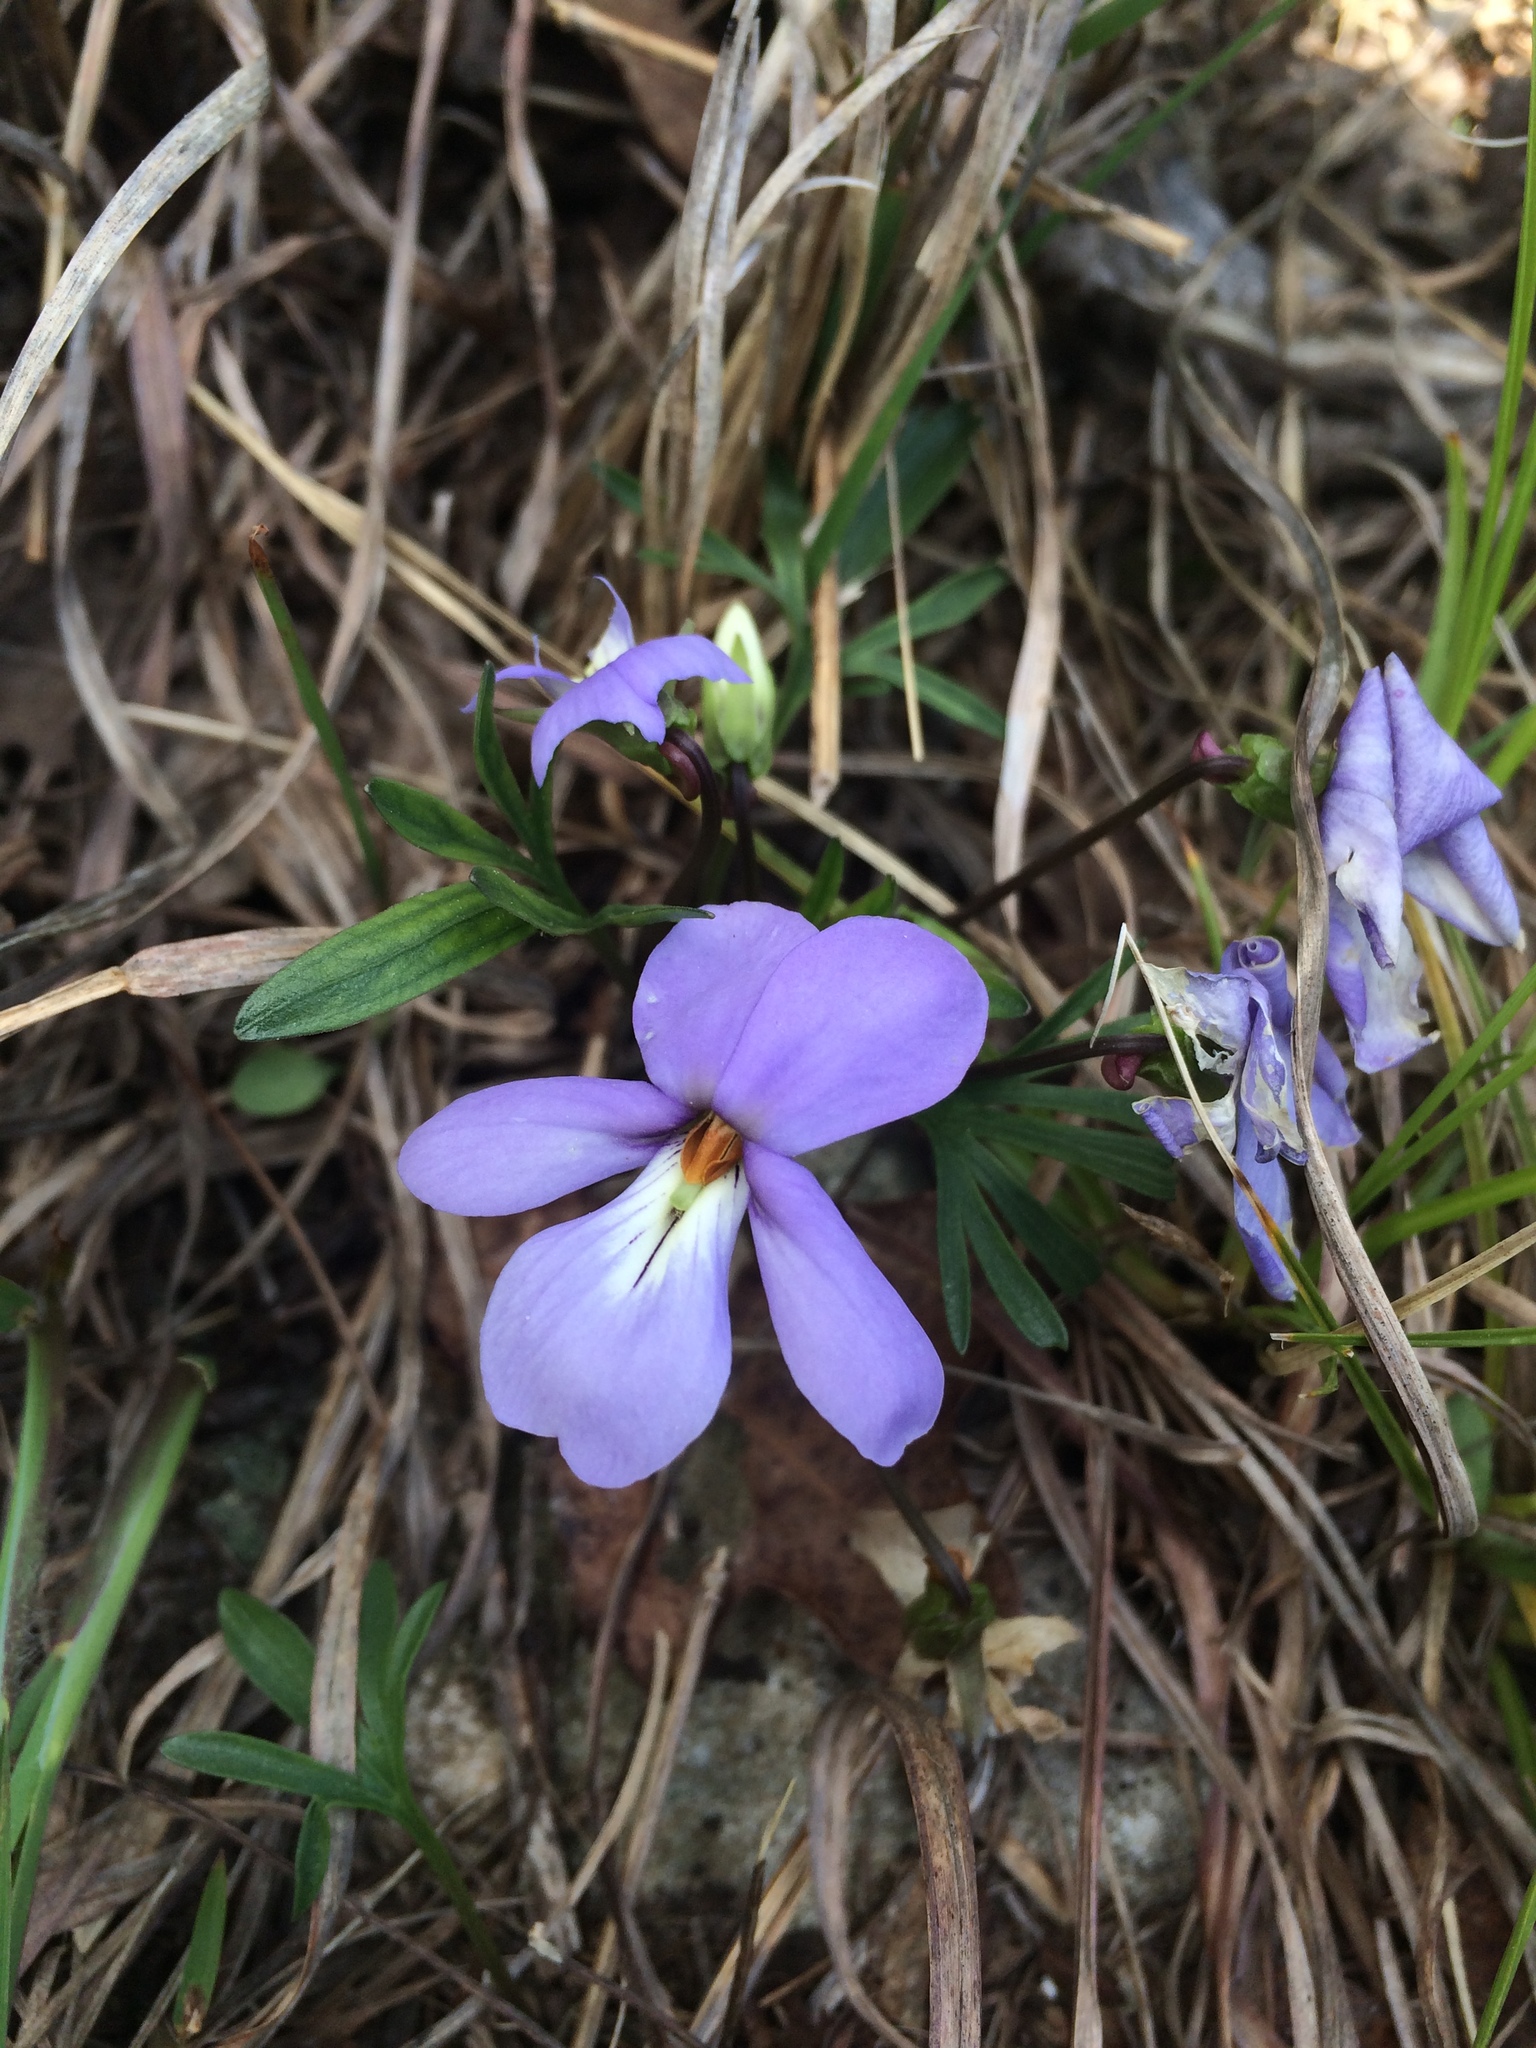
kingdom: Plantae
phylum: Tracheophyta
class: Magnoliopsida
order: Malpighiales
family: Violaceae
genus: Viola
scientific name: Viola pedata
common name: Pansy violet
